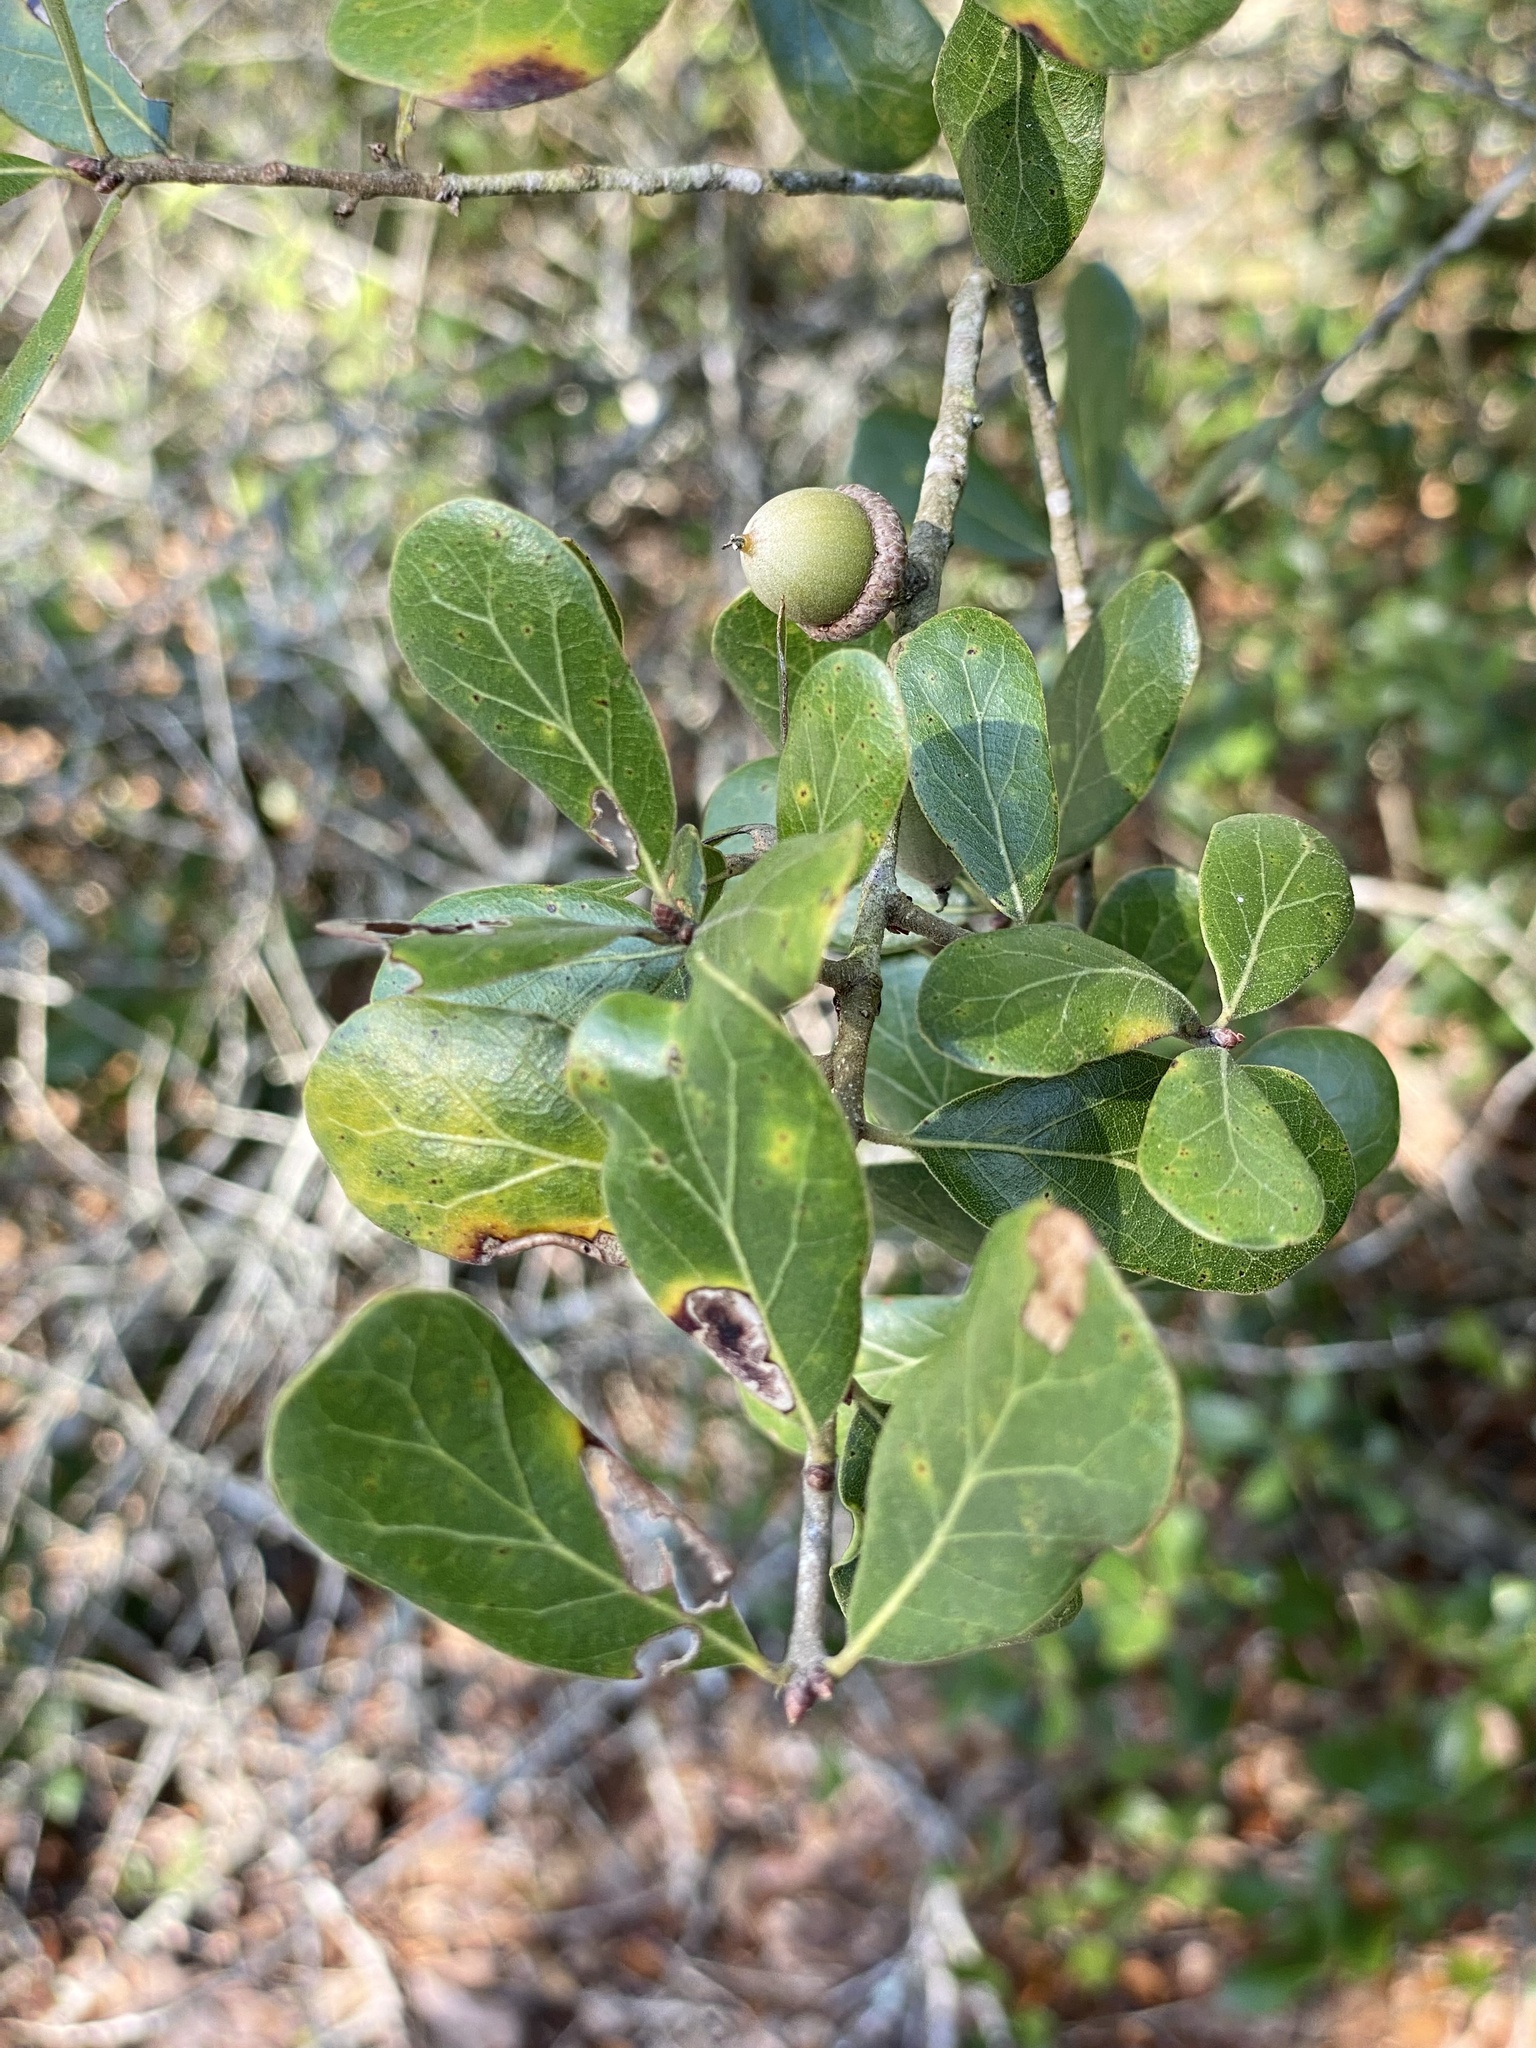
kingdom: Plantae
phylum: Tracheophyta
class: Magnoliopsida
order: Fagales
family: Fagaceae
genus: Quercus
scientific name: Quercus myrtifolia
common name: Myrtle oak
